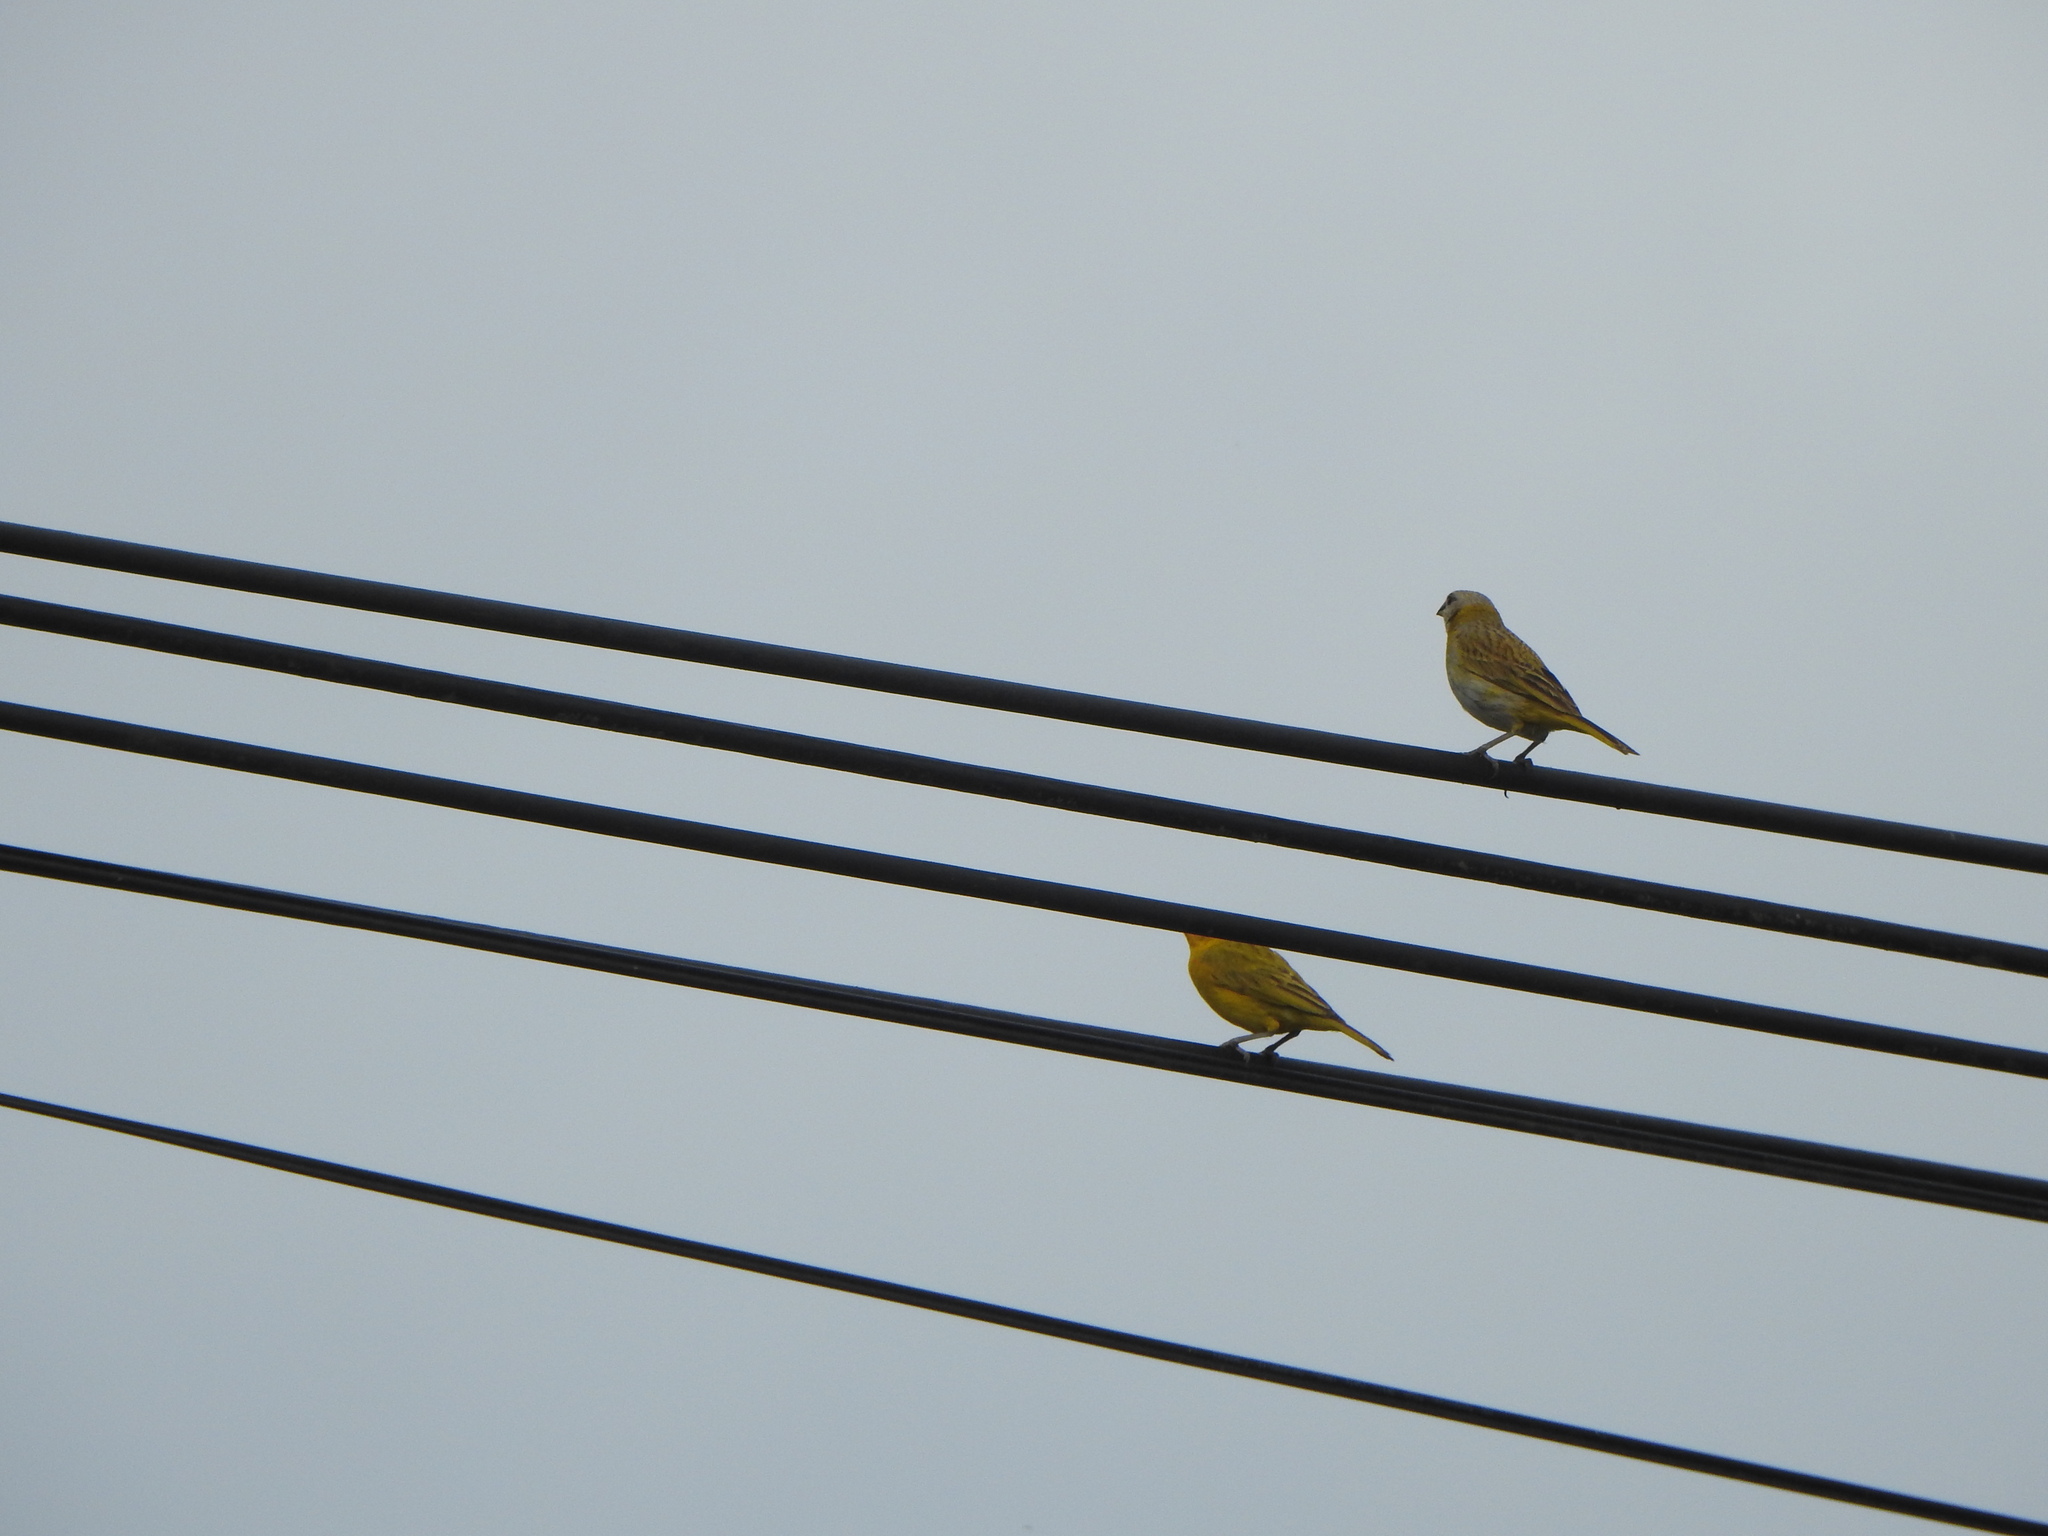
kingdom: Animalia
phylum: Chordata
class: Aves
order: Passeriformes
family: Thraupidae
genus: Sicalis
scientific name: Sicalis flaveola
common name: Saffron finch
